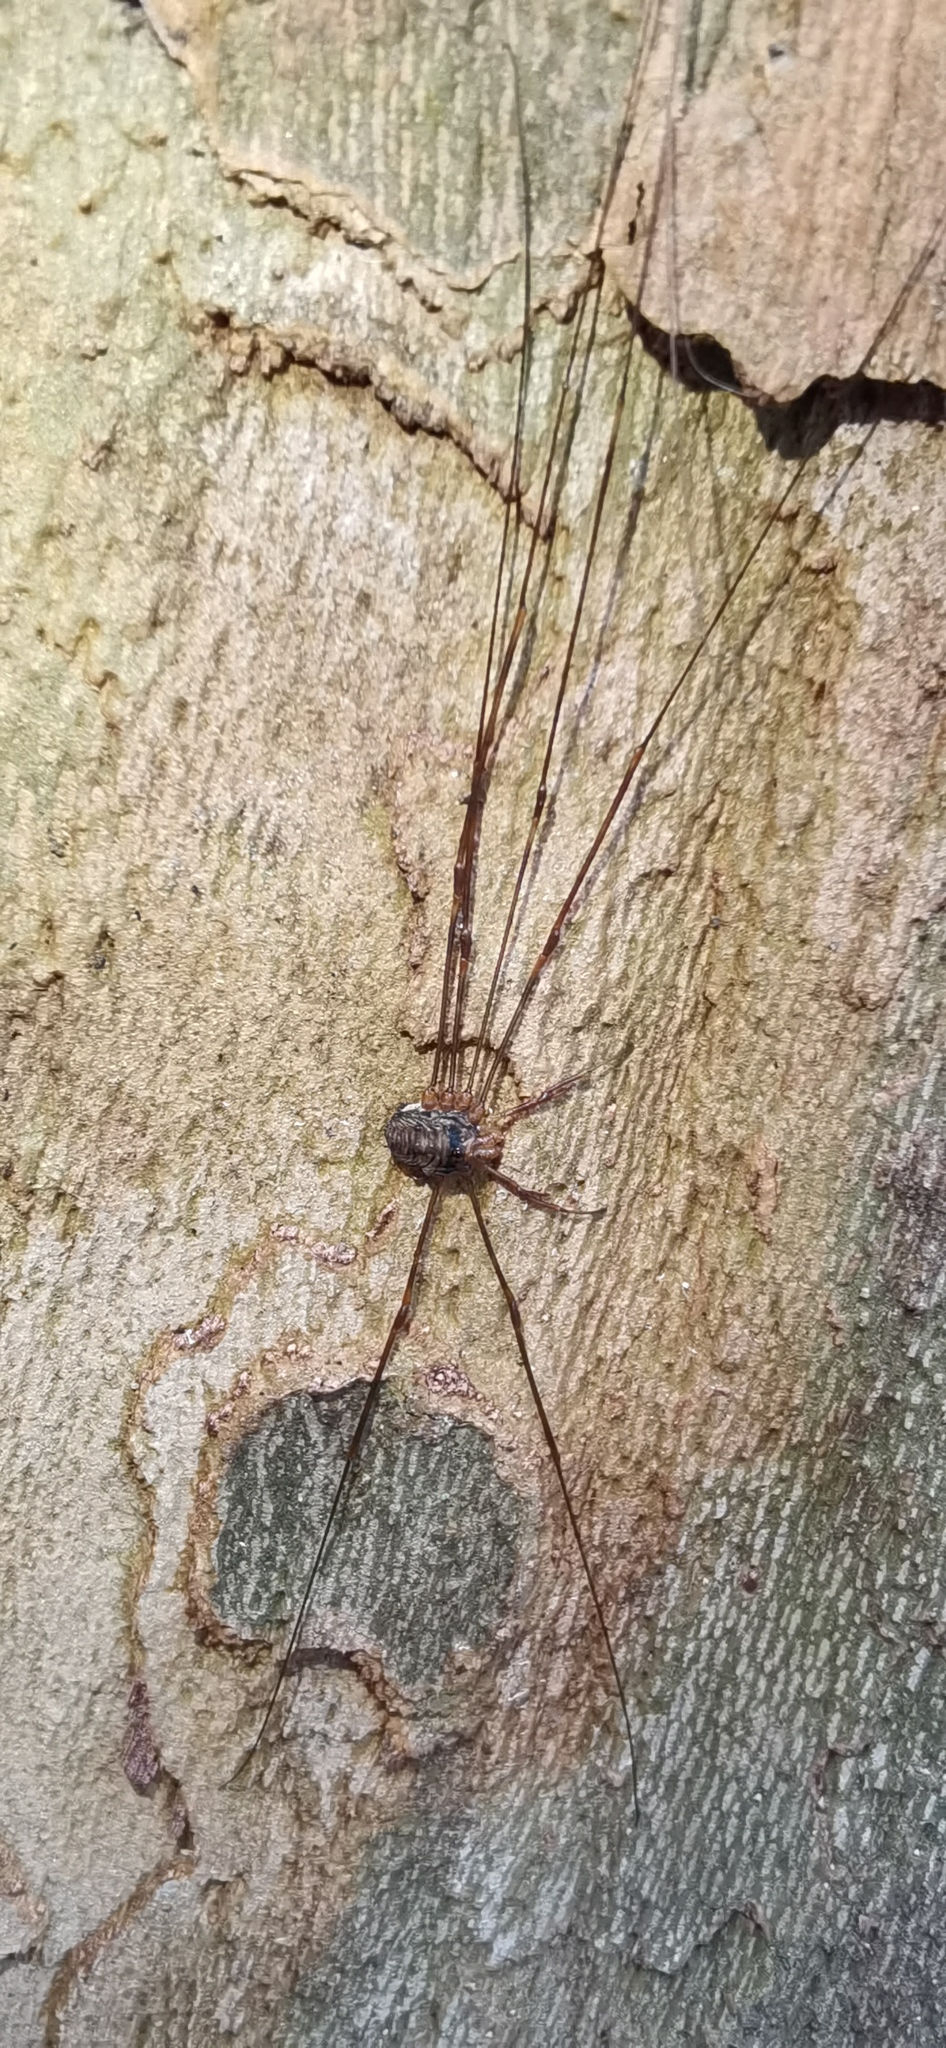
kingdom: Animalia
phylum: Arthropoda
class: Arachnida
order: Opiliones
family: Phalangiidae
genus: Dicranopalpus
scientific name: Dicranopalpus ramosus
